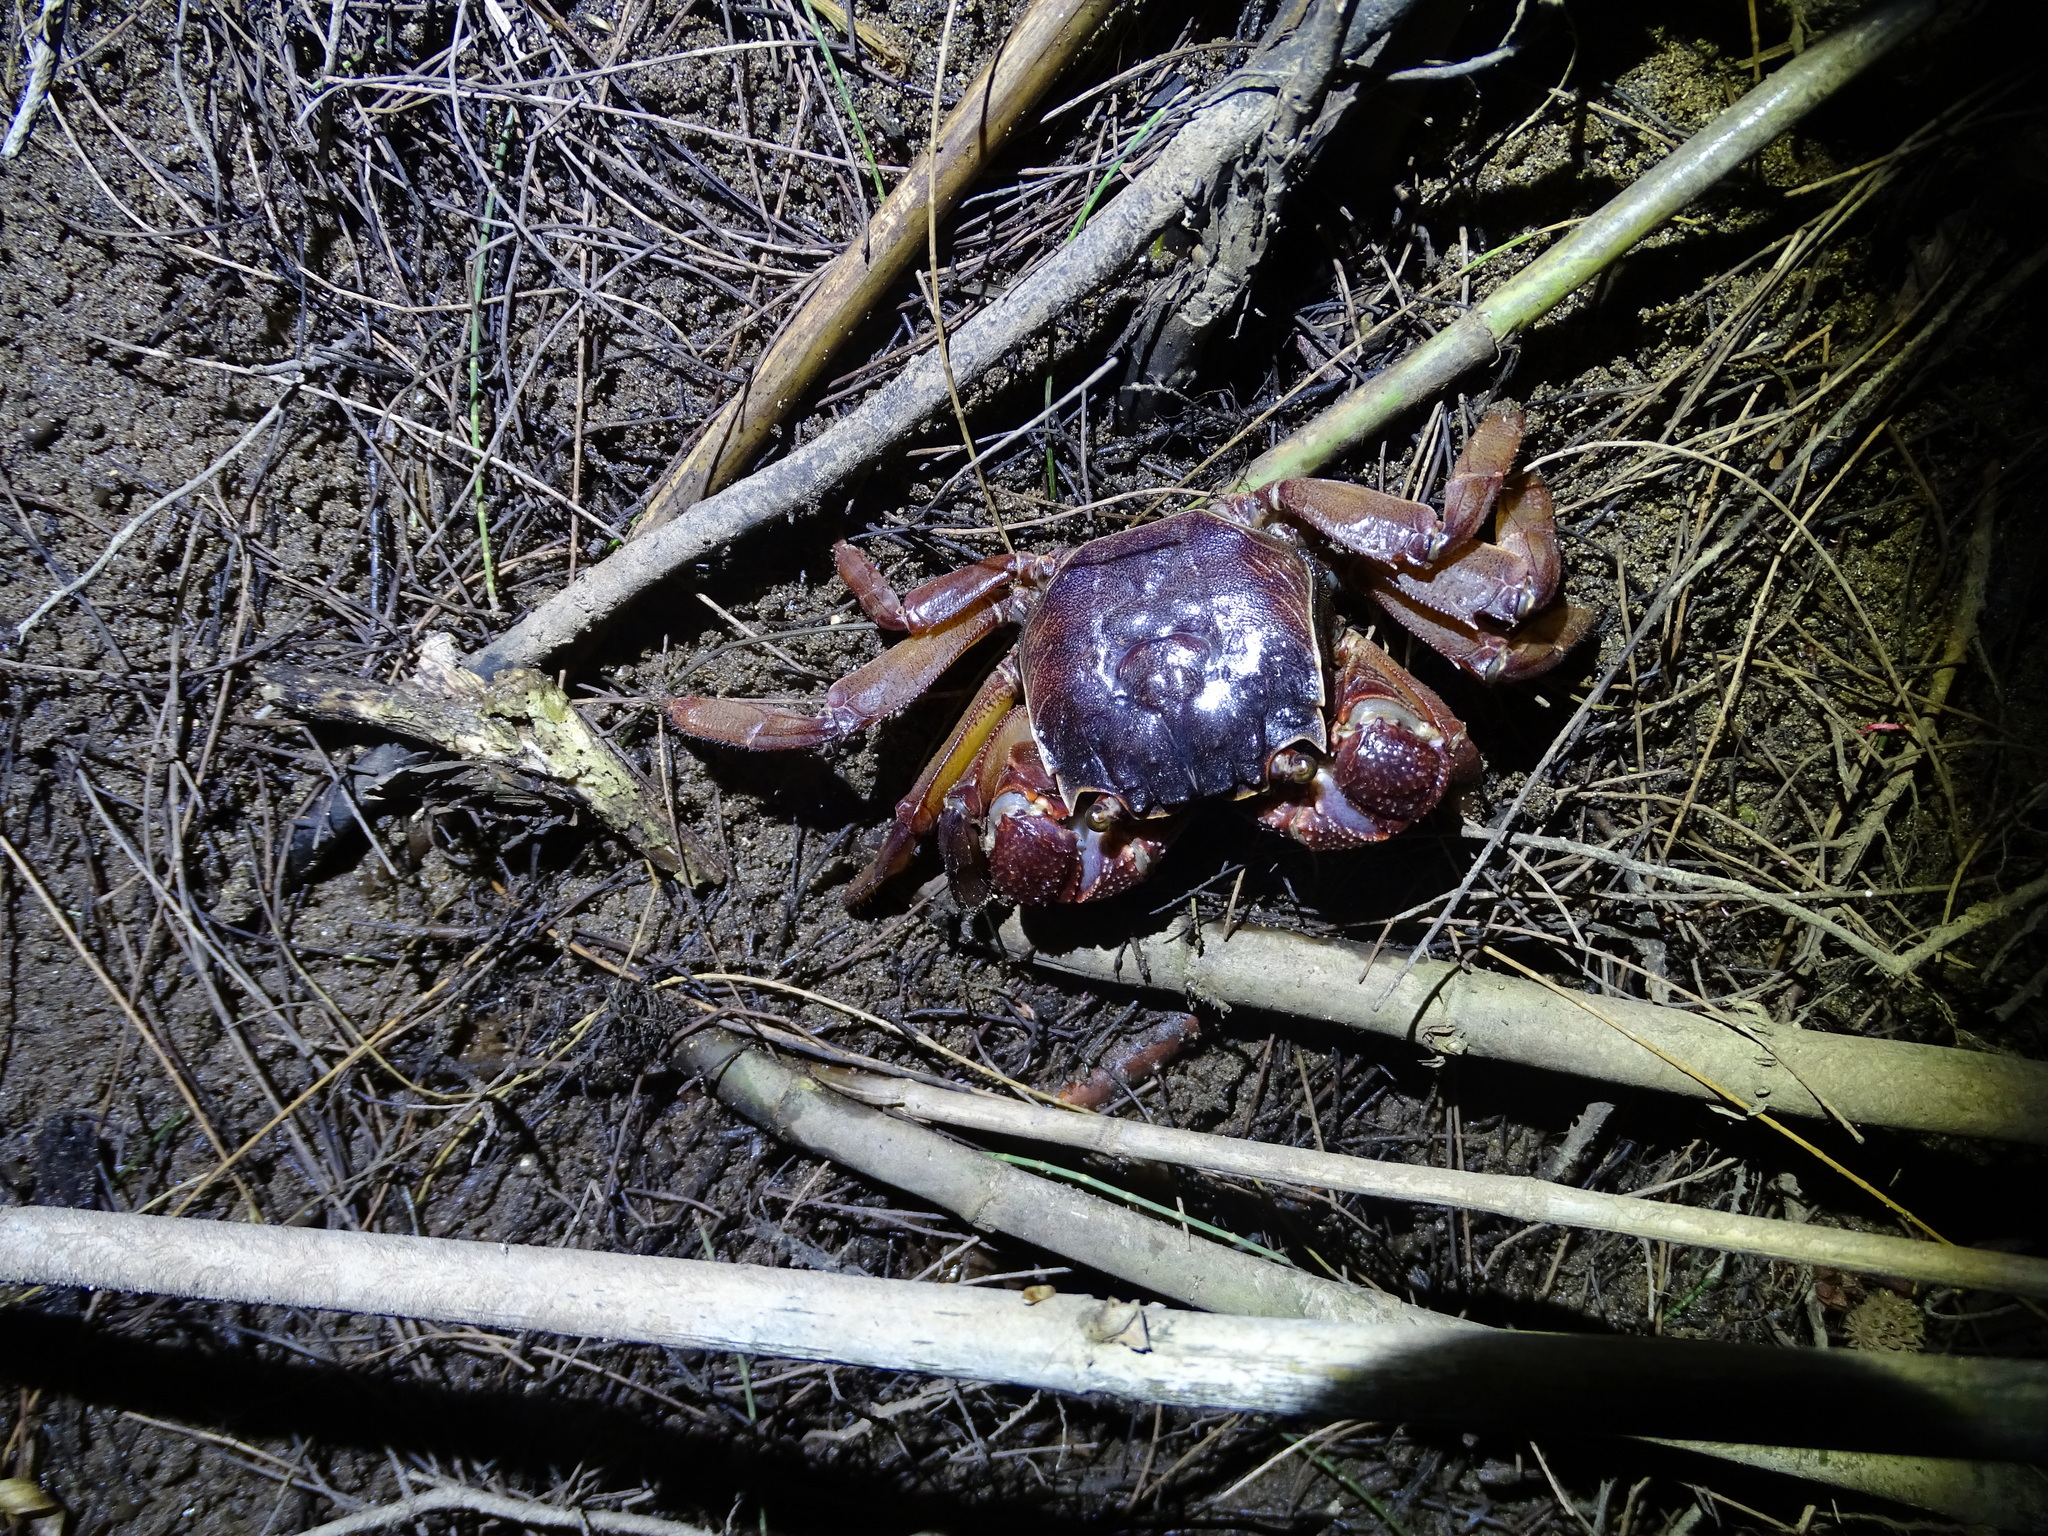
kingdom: Animalia
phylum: Arthropoda
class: Malacostraca
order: Decapoda
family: Sesarmidae
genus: Sesarmops
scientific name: Sesarmops imperator
